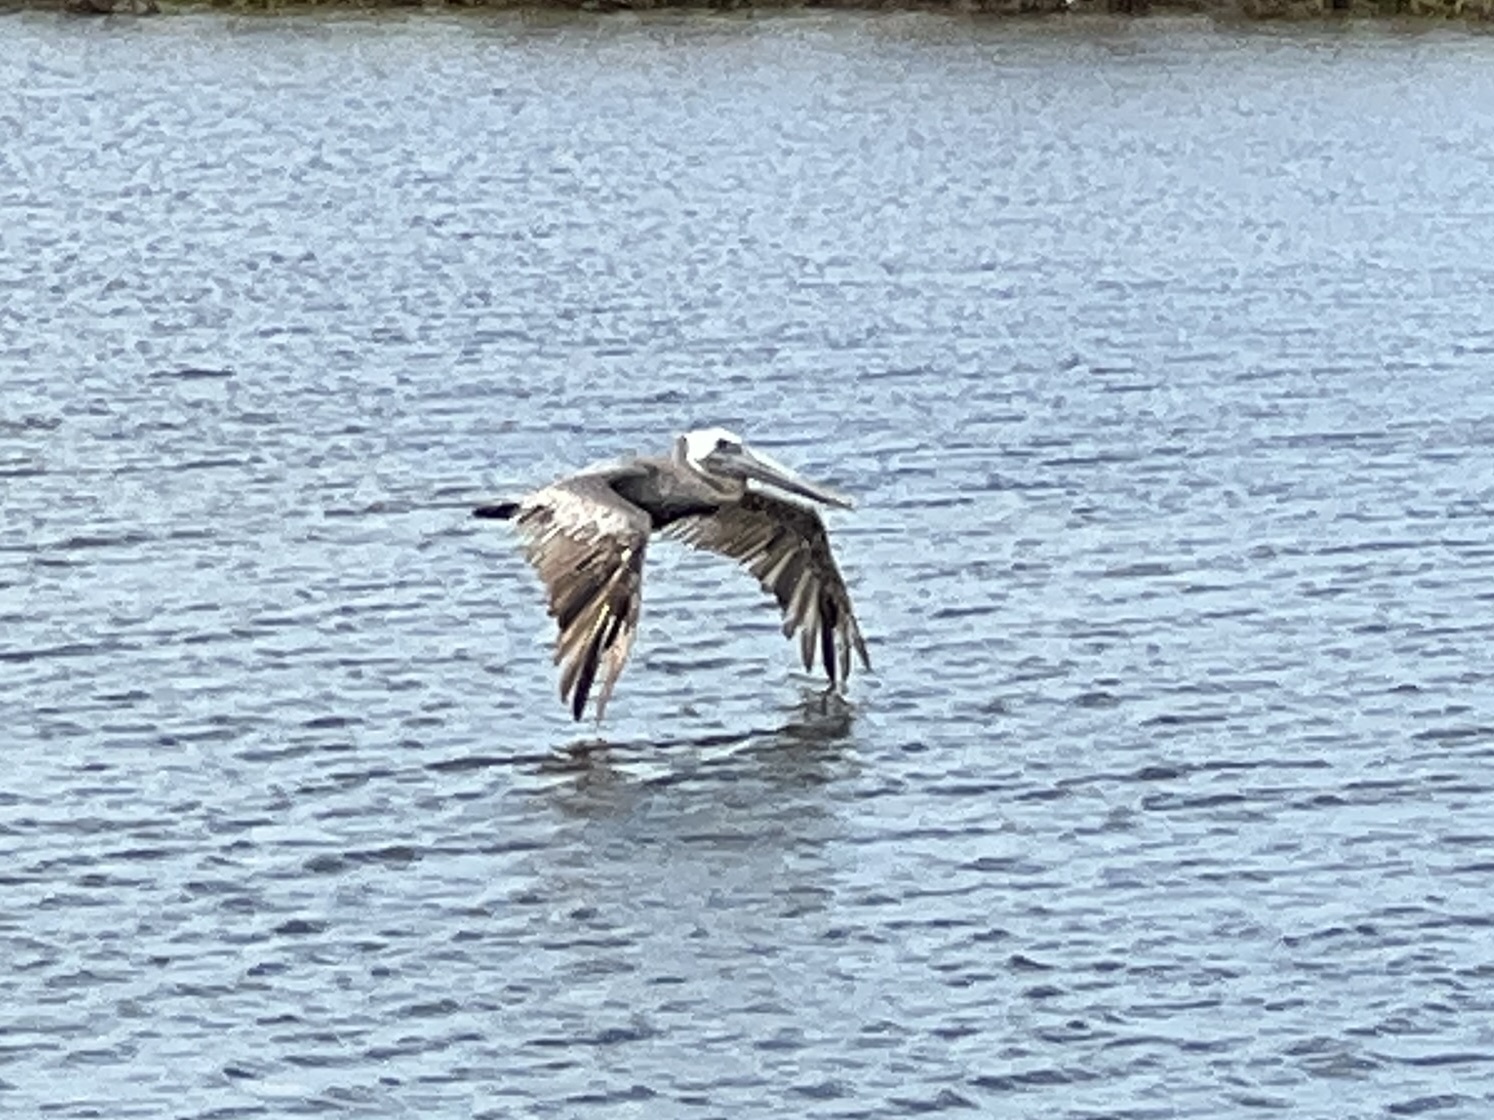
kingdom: Animalia
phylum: Chordata
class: Aves
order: Pelecaniformes
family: Pelecanidae
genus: Pelecanus
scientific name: Pelecanus occidentalis
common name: Brown pelican
